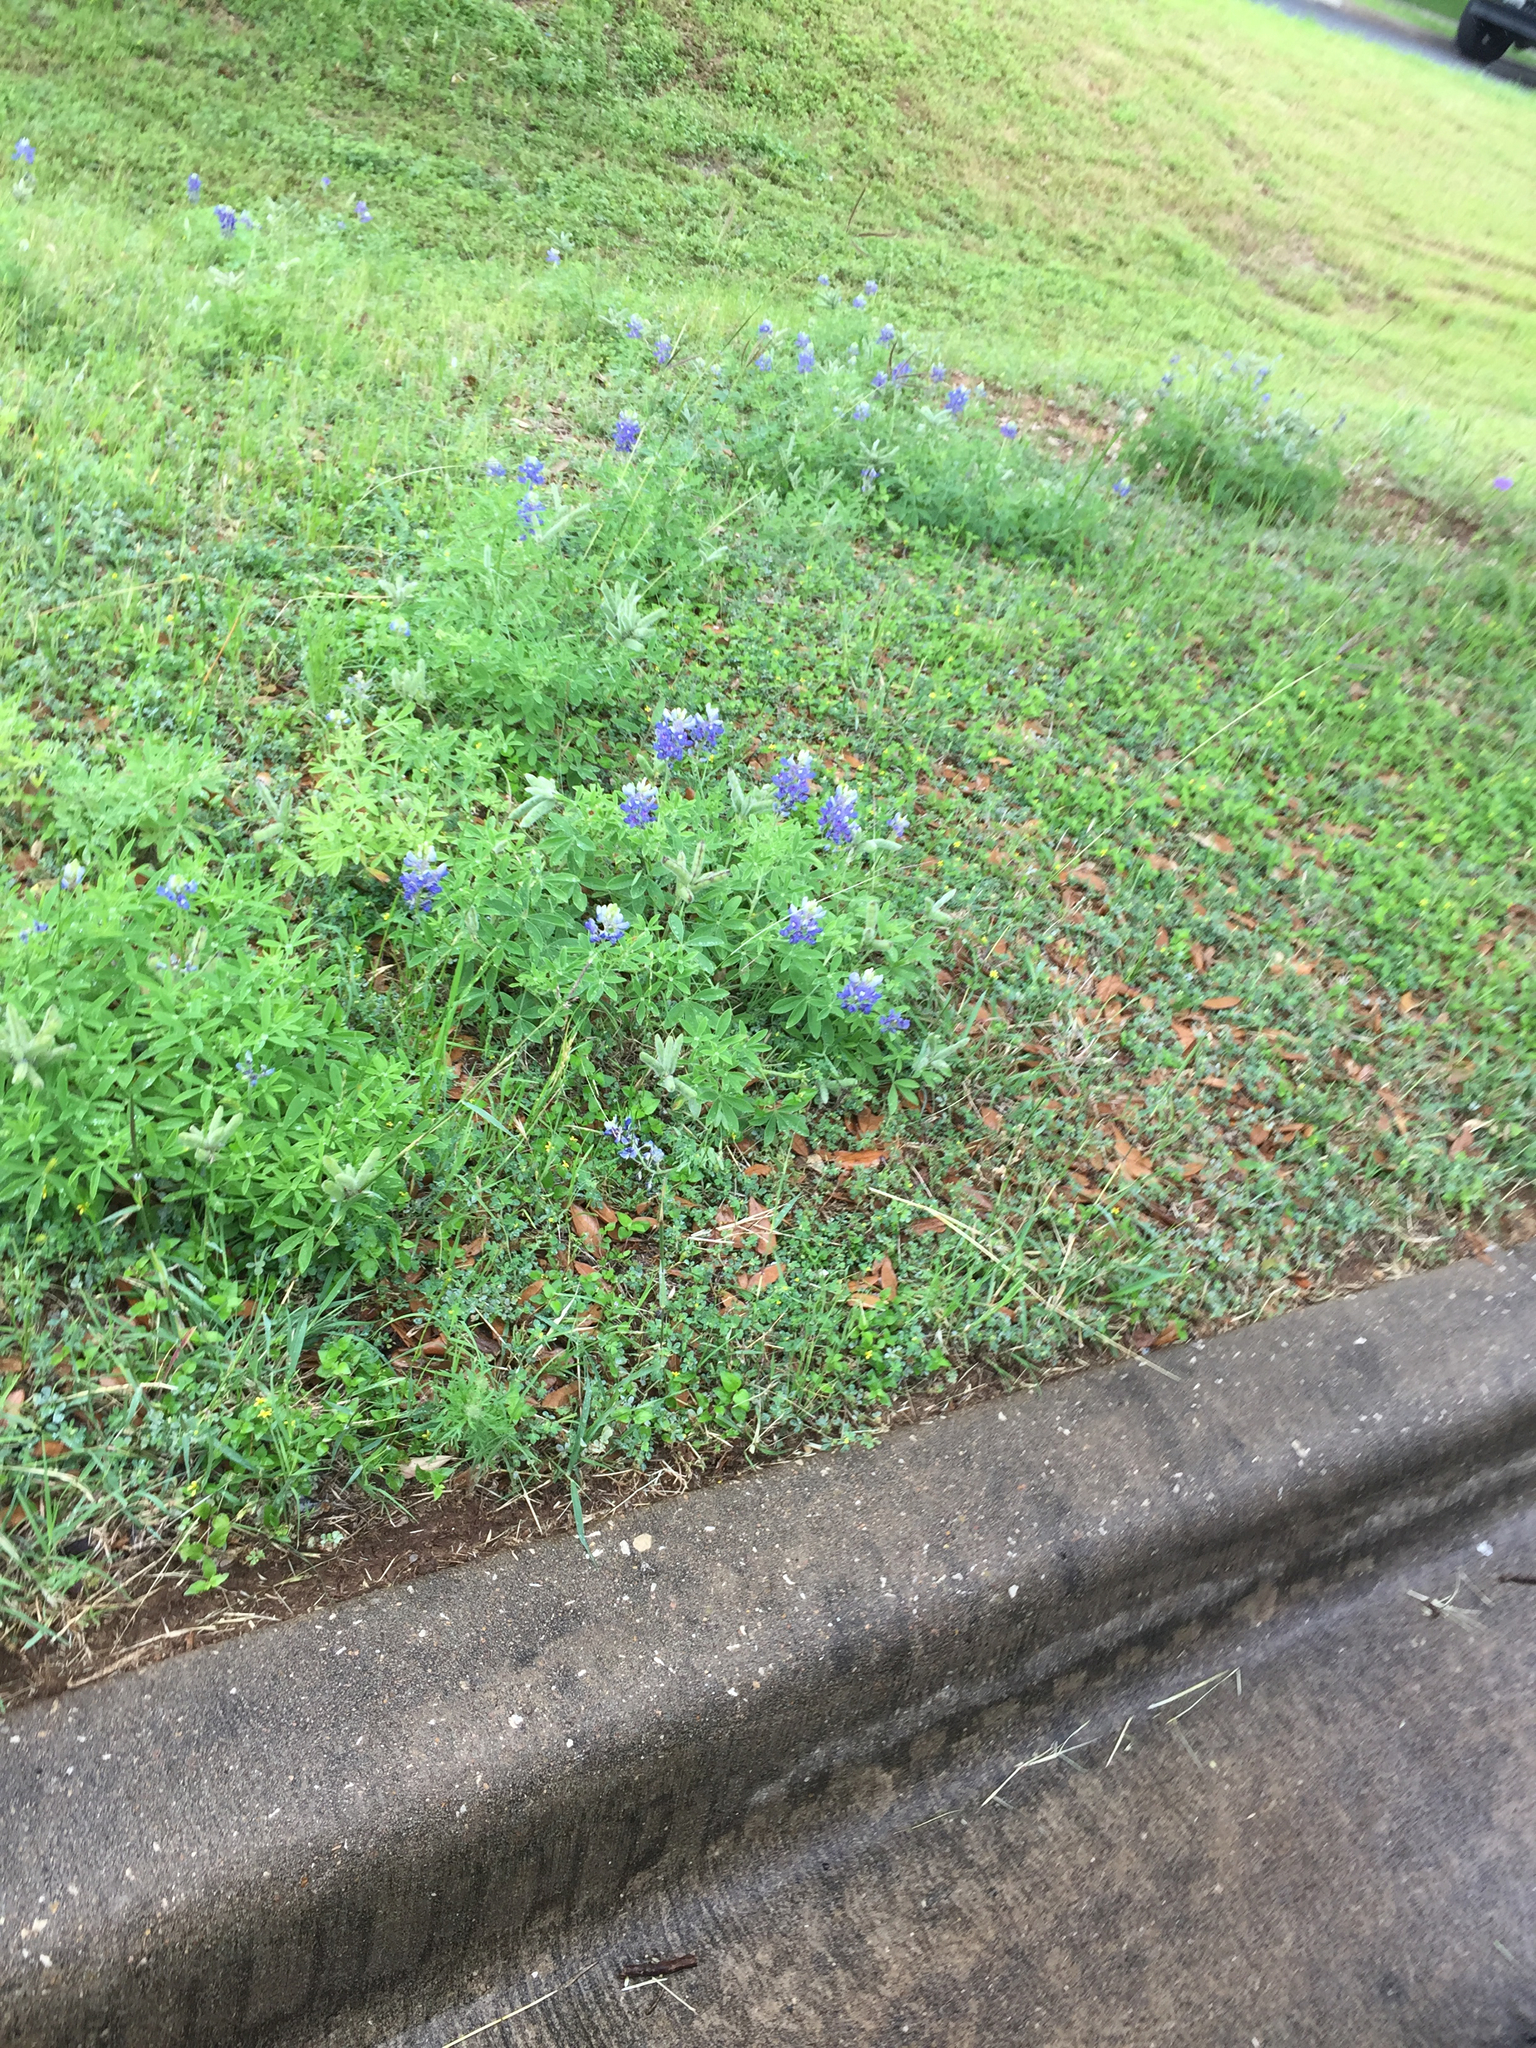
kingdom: Plantae
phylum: Tracheophyta
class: Magnoliopsida
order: Fabales
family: Fabaceae
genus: Lupinus
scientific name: Lupinus texensis
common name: Texas bluebonnet
